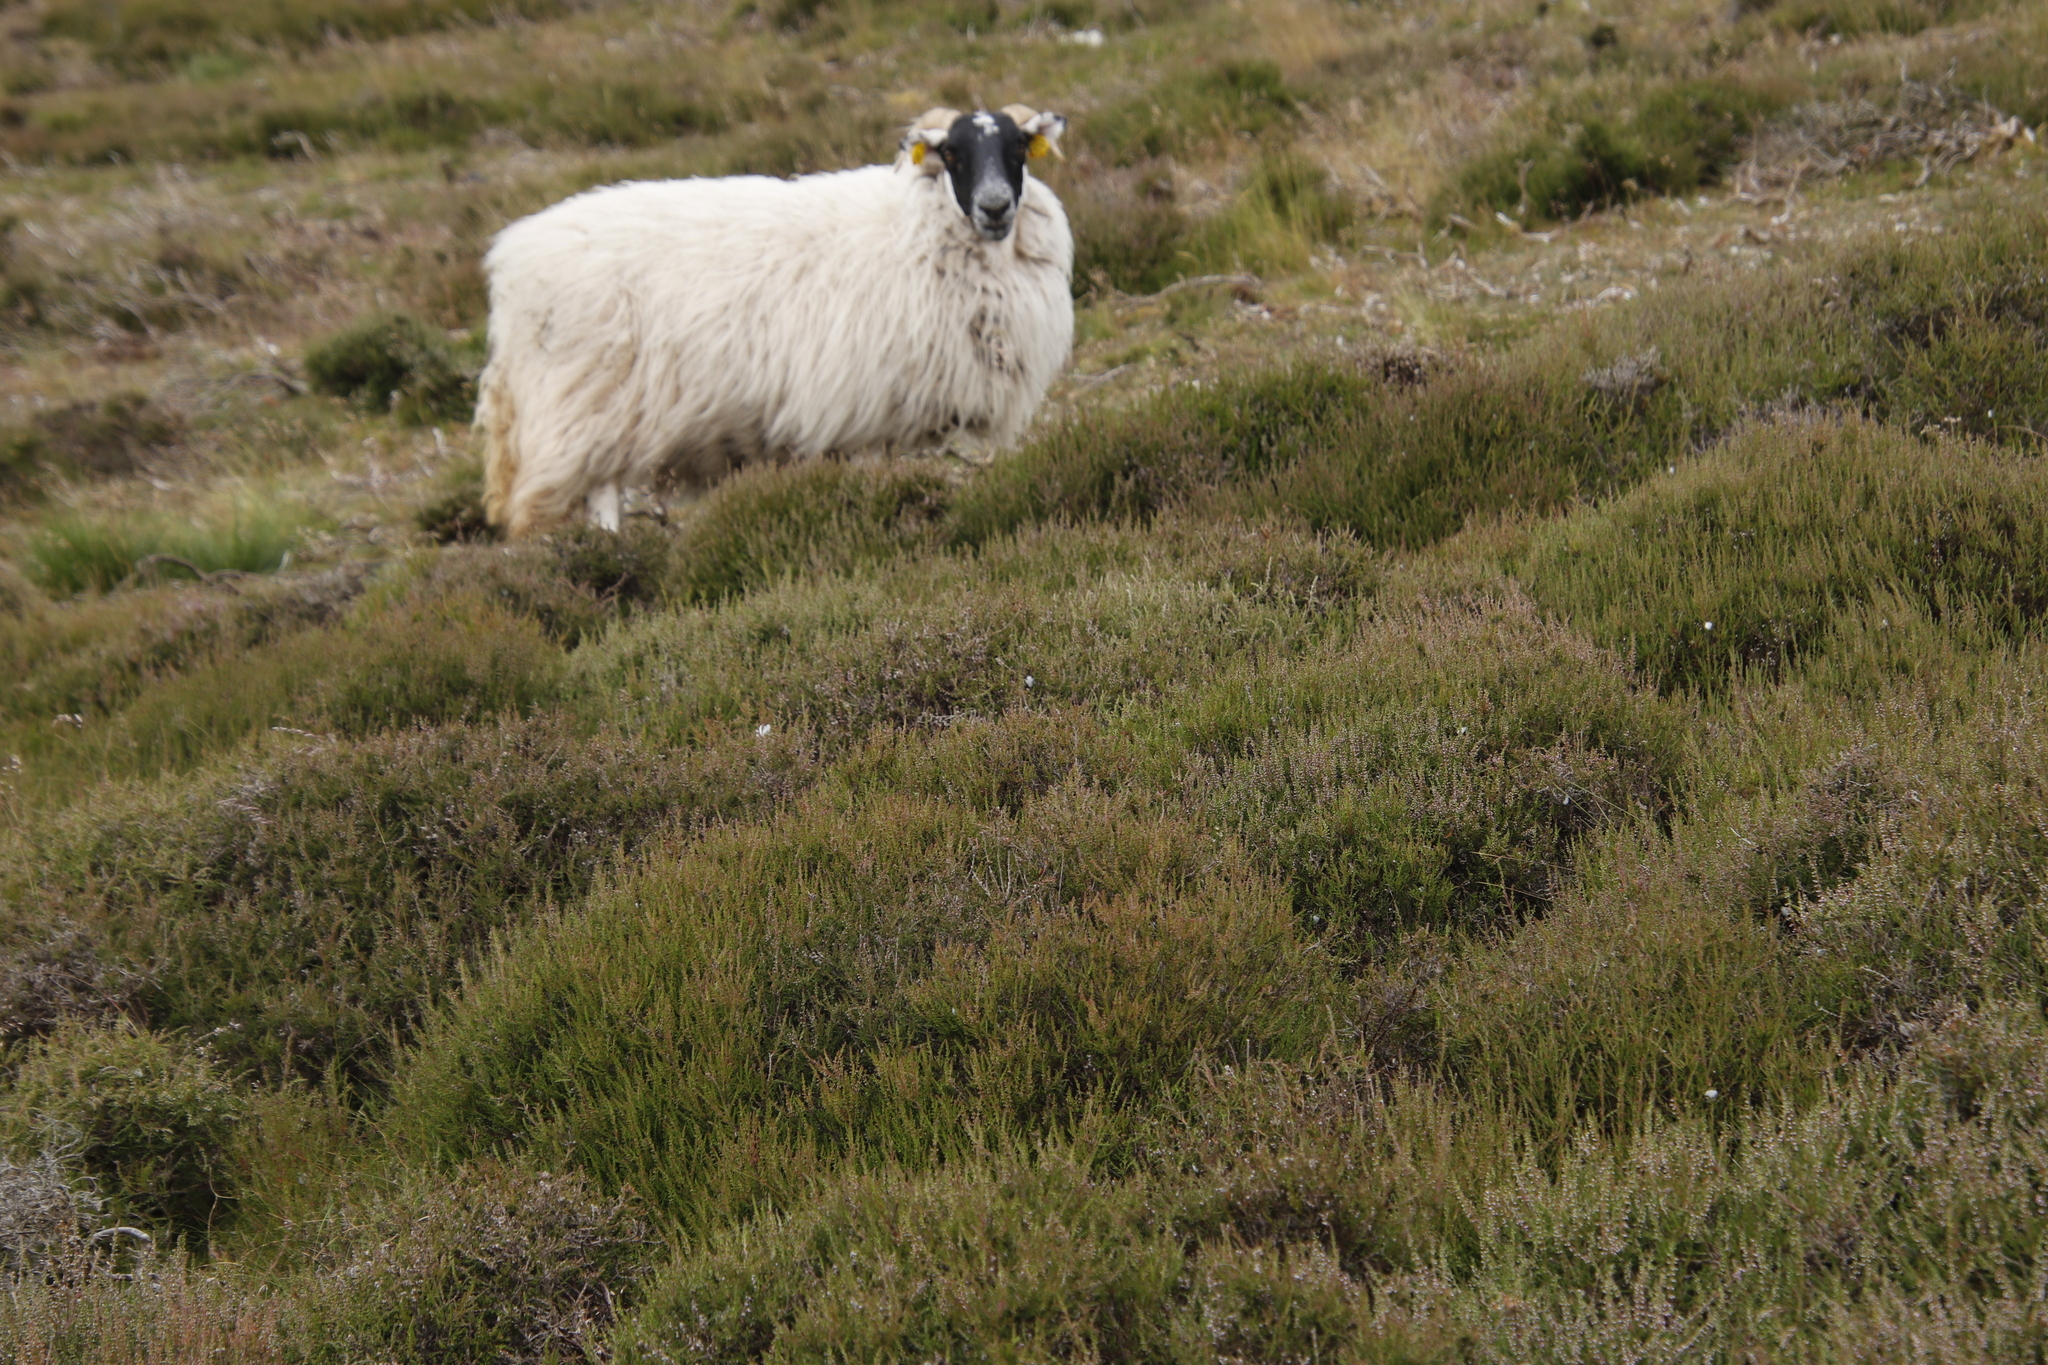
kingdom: Plantae
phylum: Tracheophyta
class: Magnoliopsida
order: Ericales
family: Ericaceae
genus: Calluna
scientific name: Calluna vulgaris
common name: Heather
